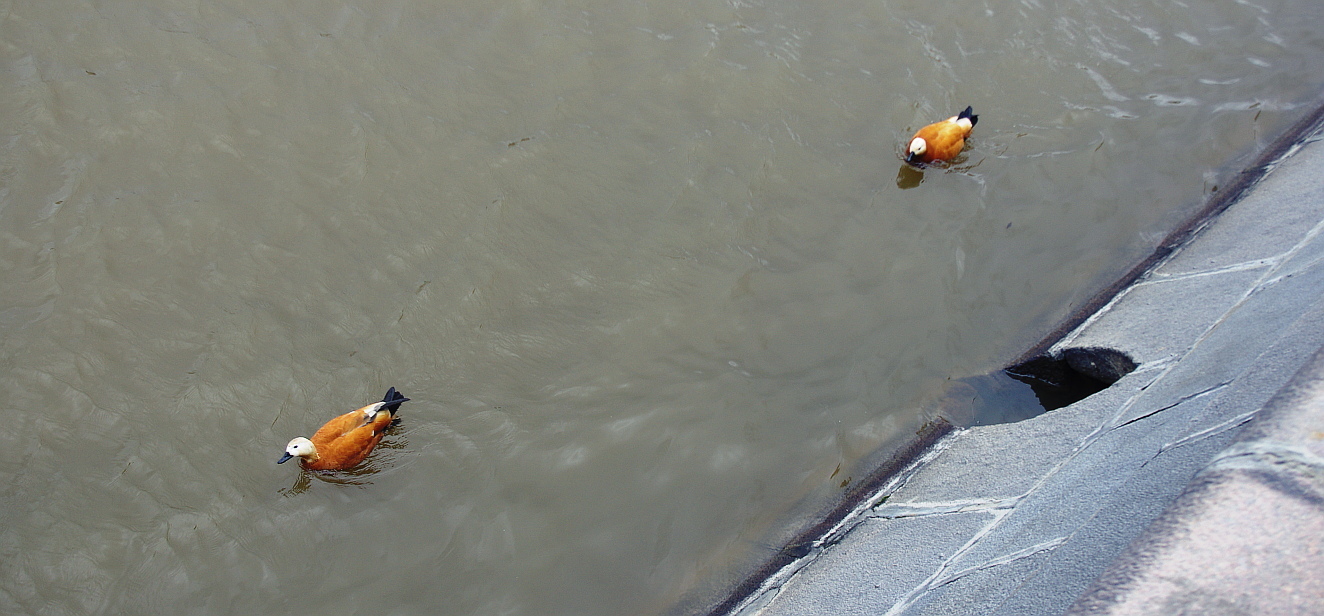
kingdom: Animalia
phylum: Chordata
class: Aves
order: Anseriformes
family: Anatidae
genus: Tadorna
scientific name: Tadorna ferruginea
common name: Ruddy shelduck
